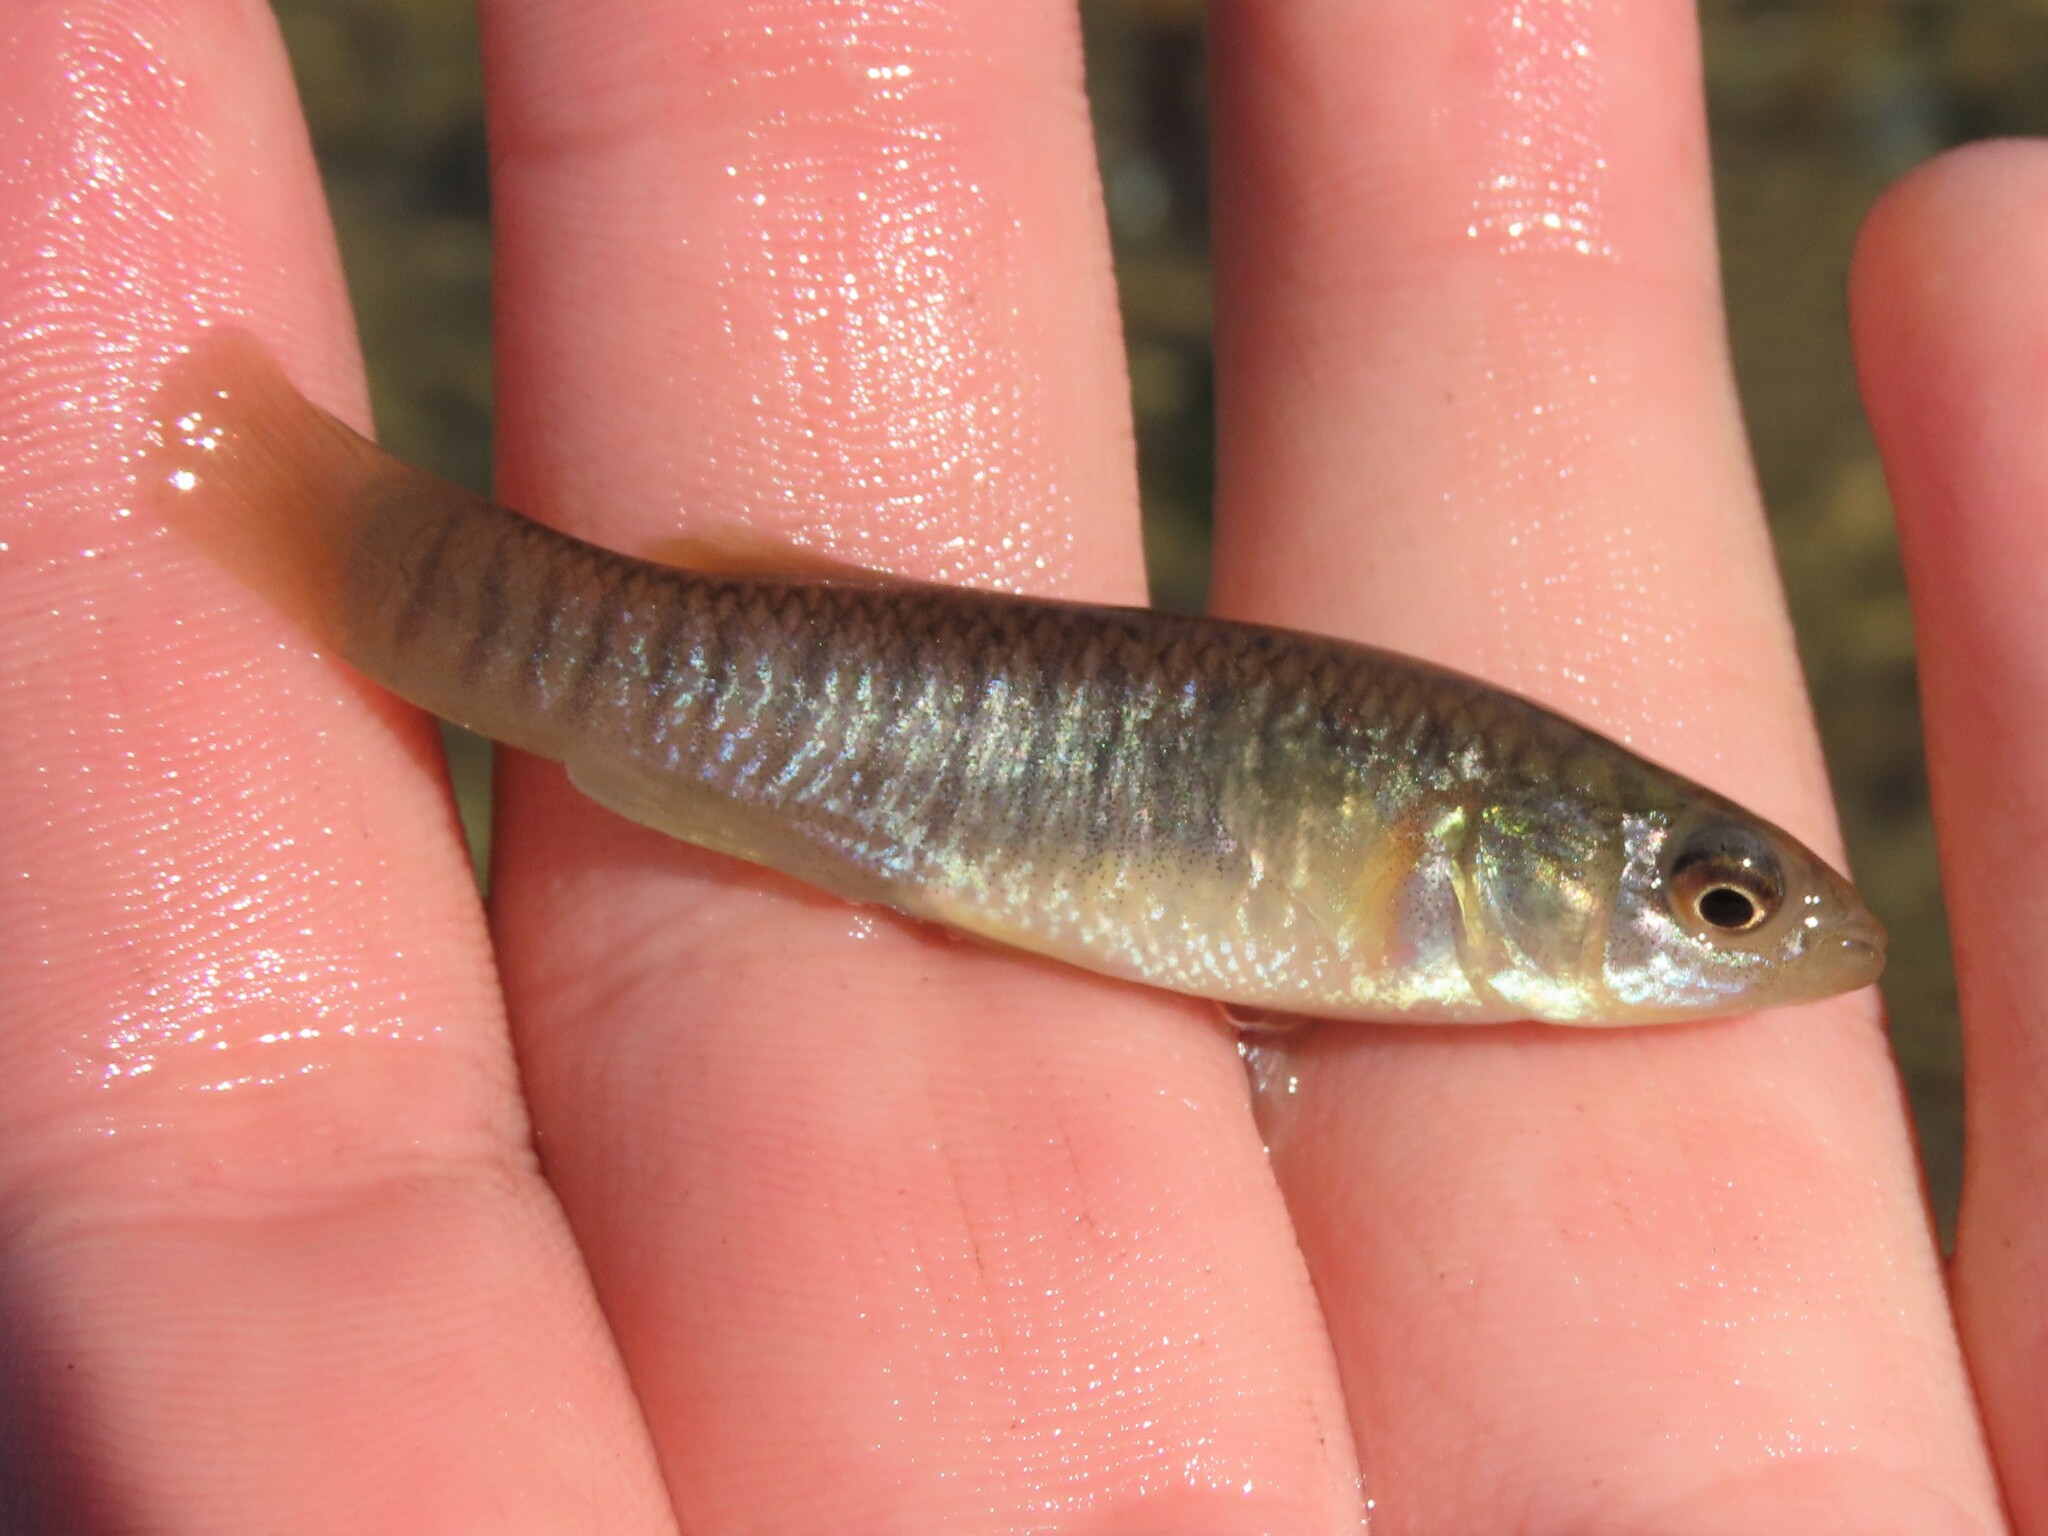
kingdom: Animalia
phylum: Chordata
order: Cyprinodontiformes
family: Fundulidae
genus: Fundulus
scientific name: Fundulus heteroclitus
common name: Mummichog
